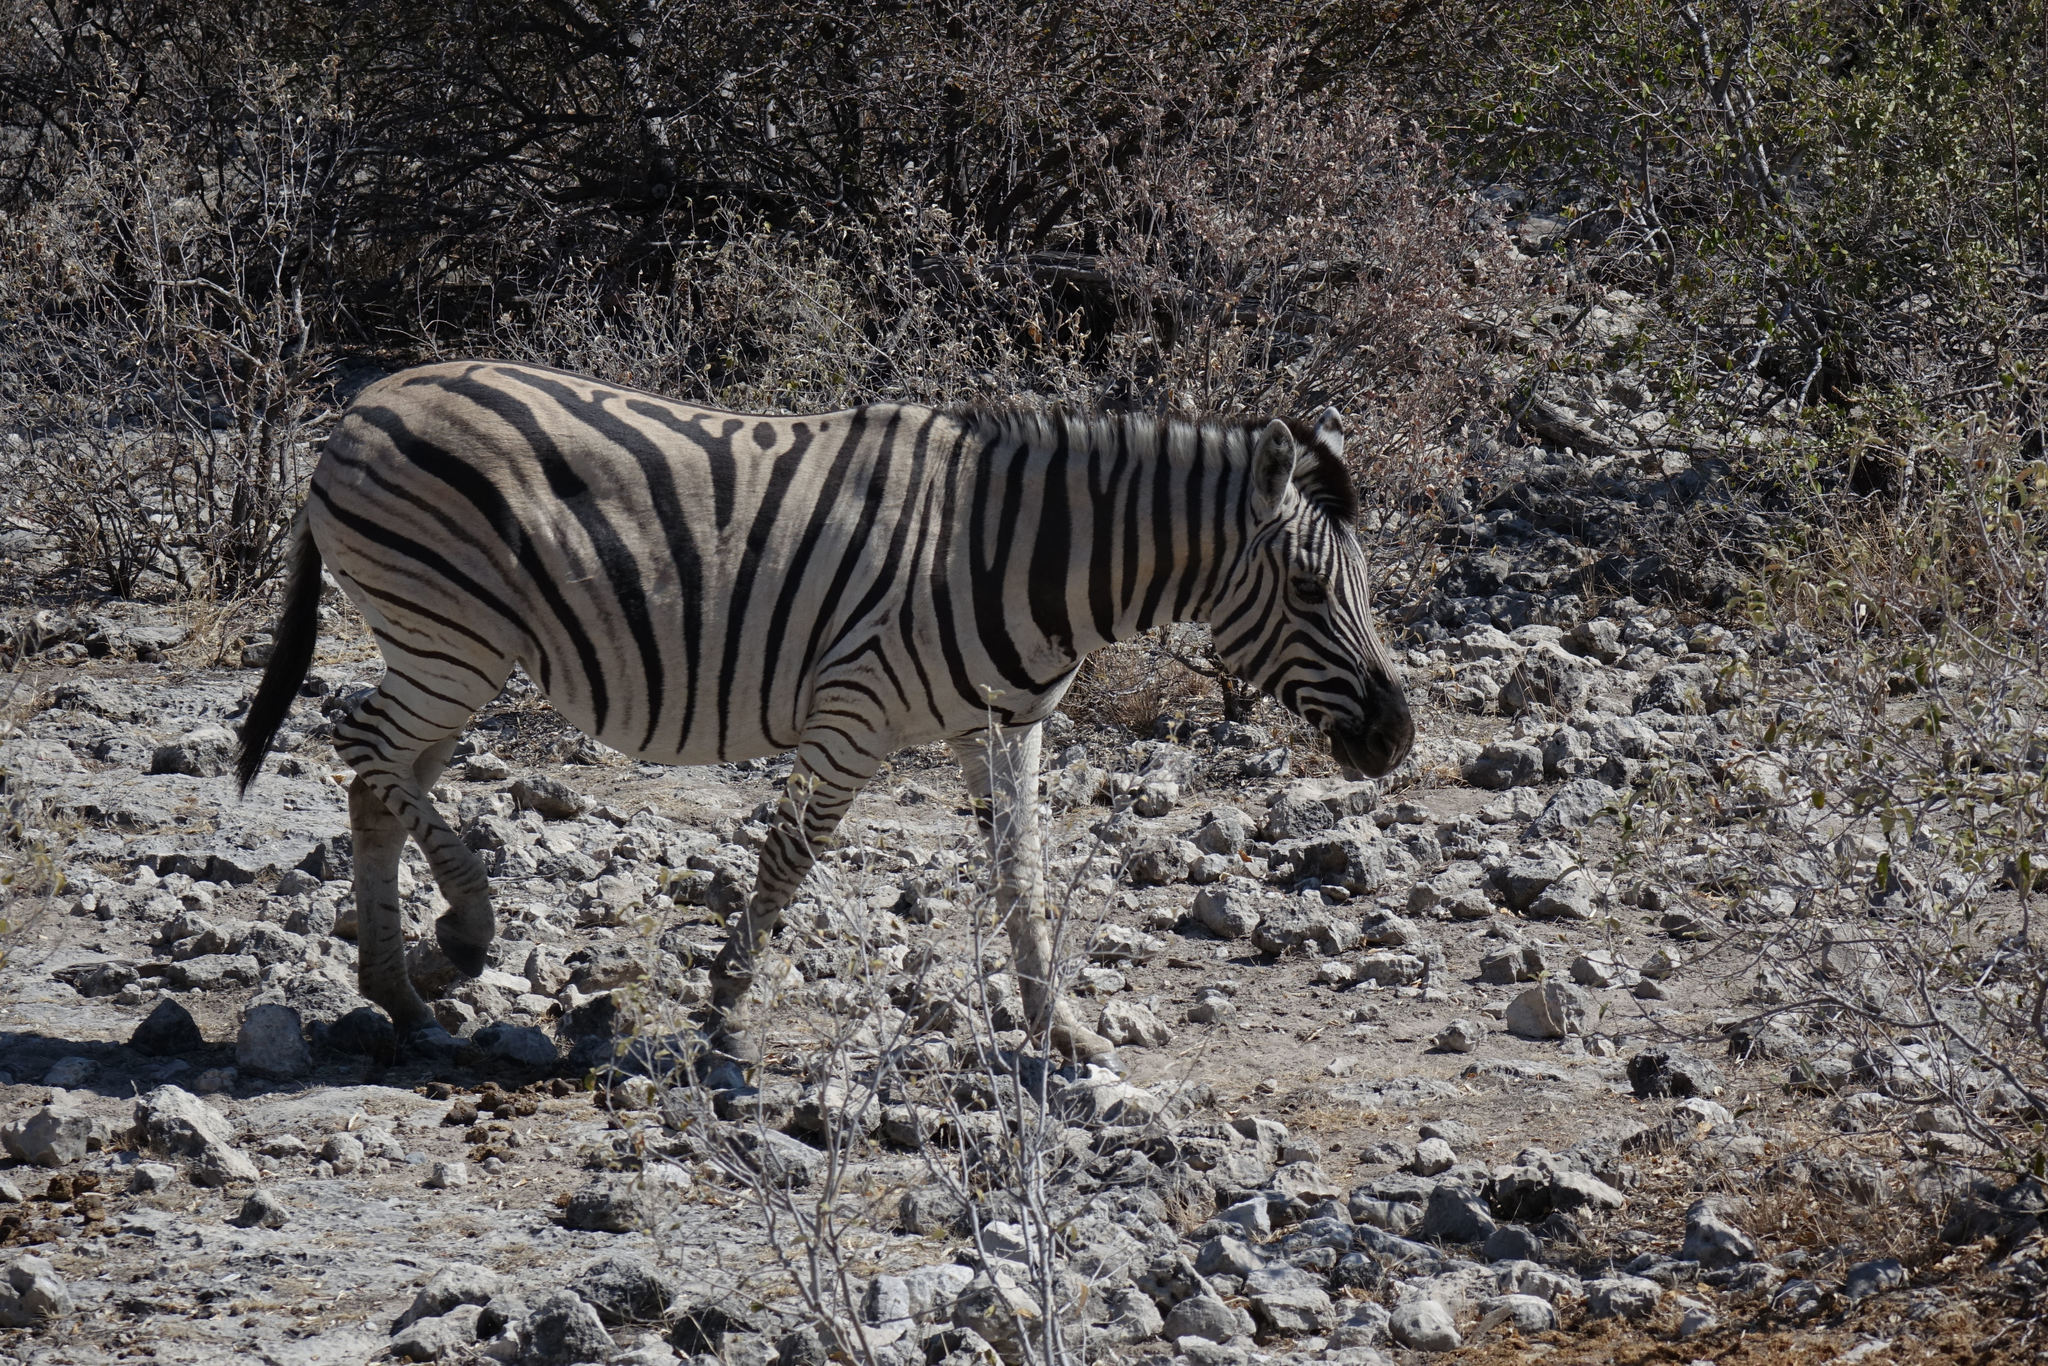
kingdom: Animalia
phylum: Chordata
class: Mammalia
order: Perissodactyla
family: Equidae
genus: Equus
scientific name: Equus quagga
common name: Plains zebra
